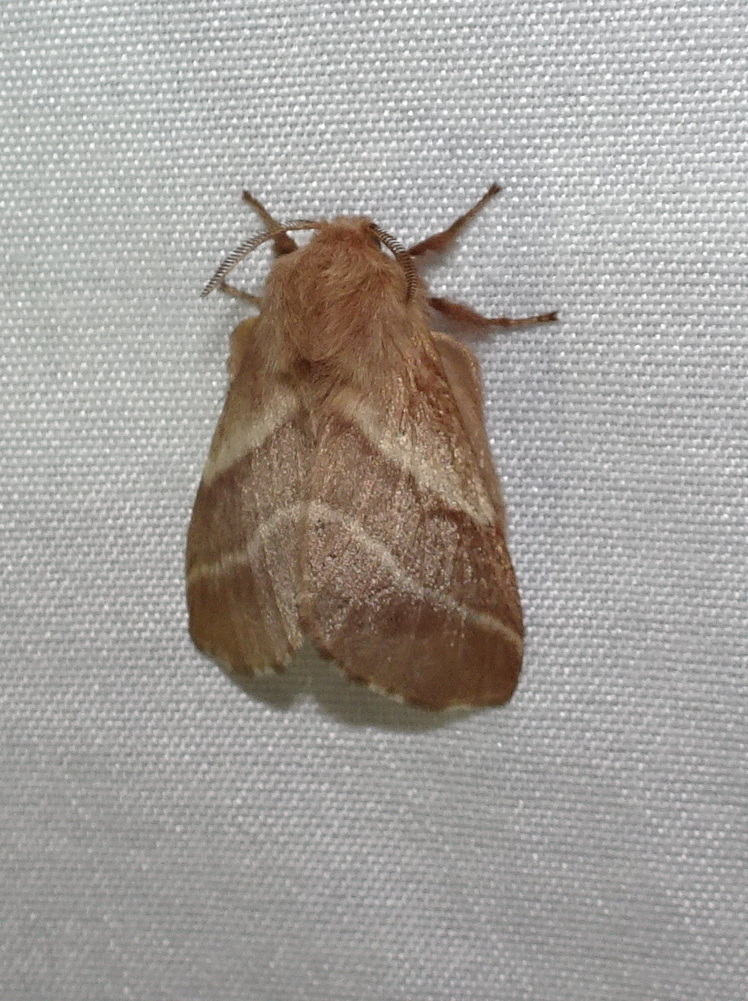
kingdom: Animalia
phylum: Arthropoda
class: Insecta
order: Lepidoptera
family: Lasiocampidae
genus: Malacosoma
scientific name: Malacosoma americana
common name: Eastern tent caterpillar moth
